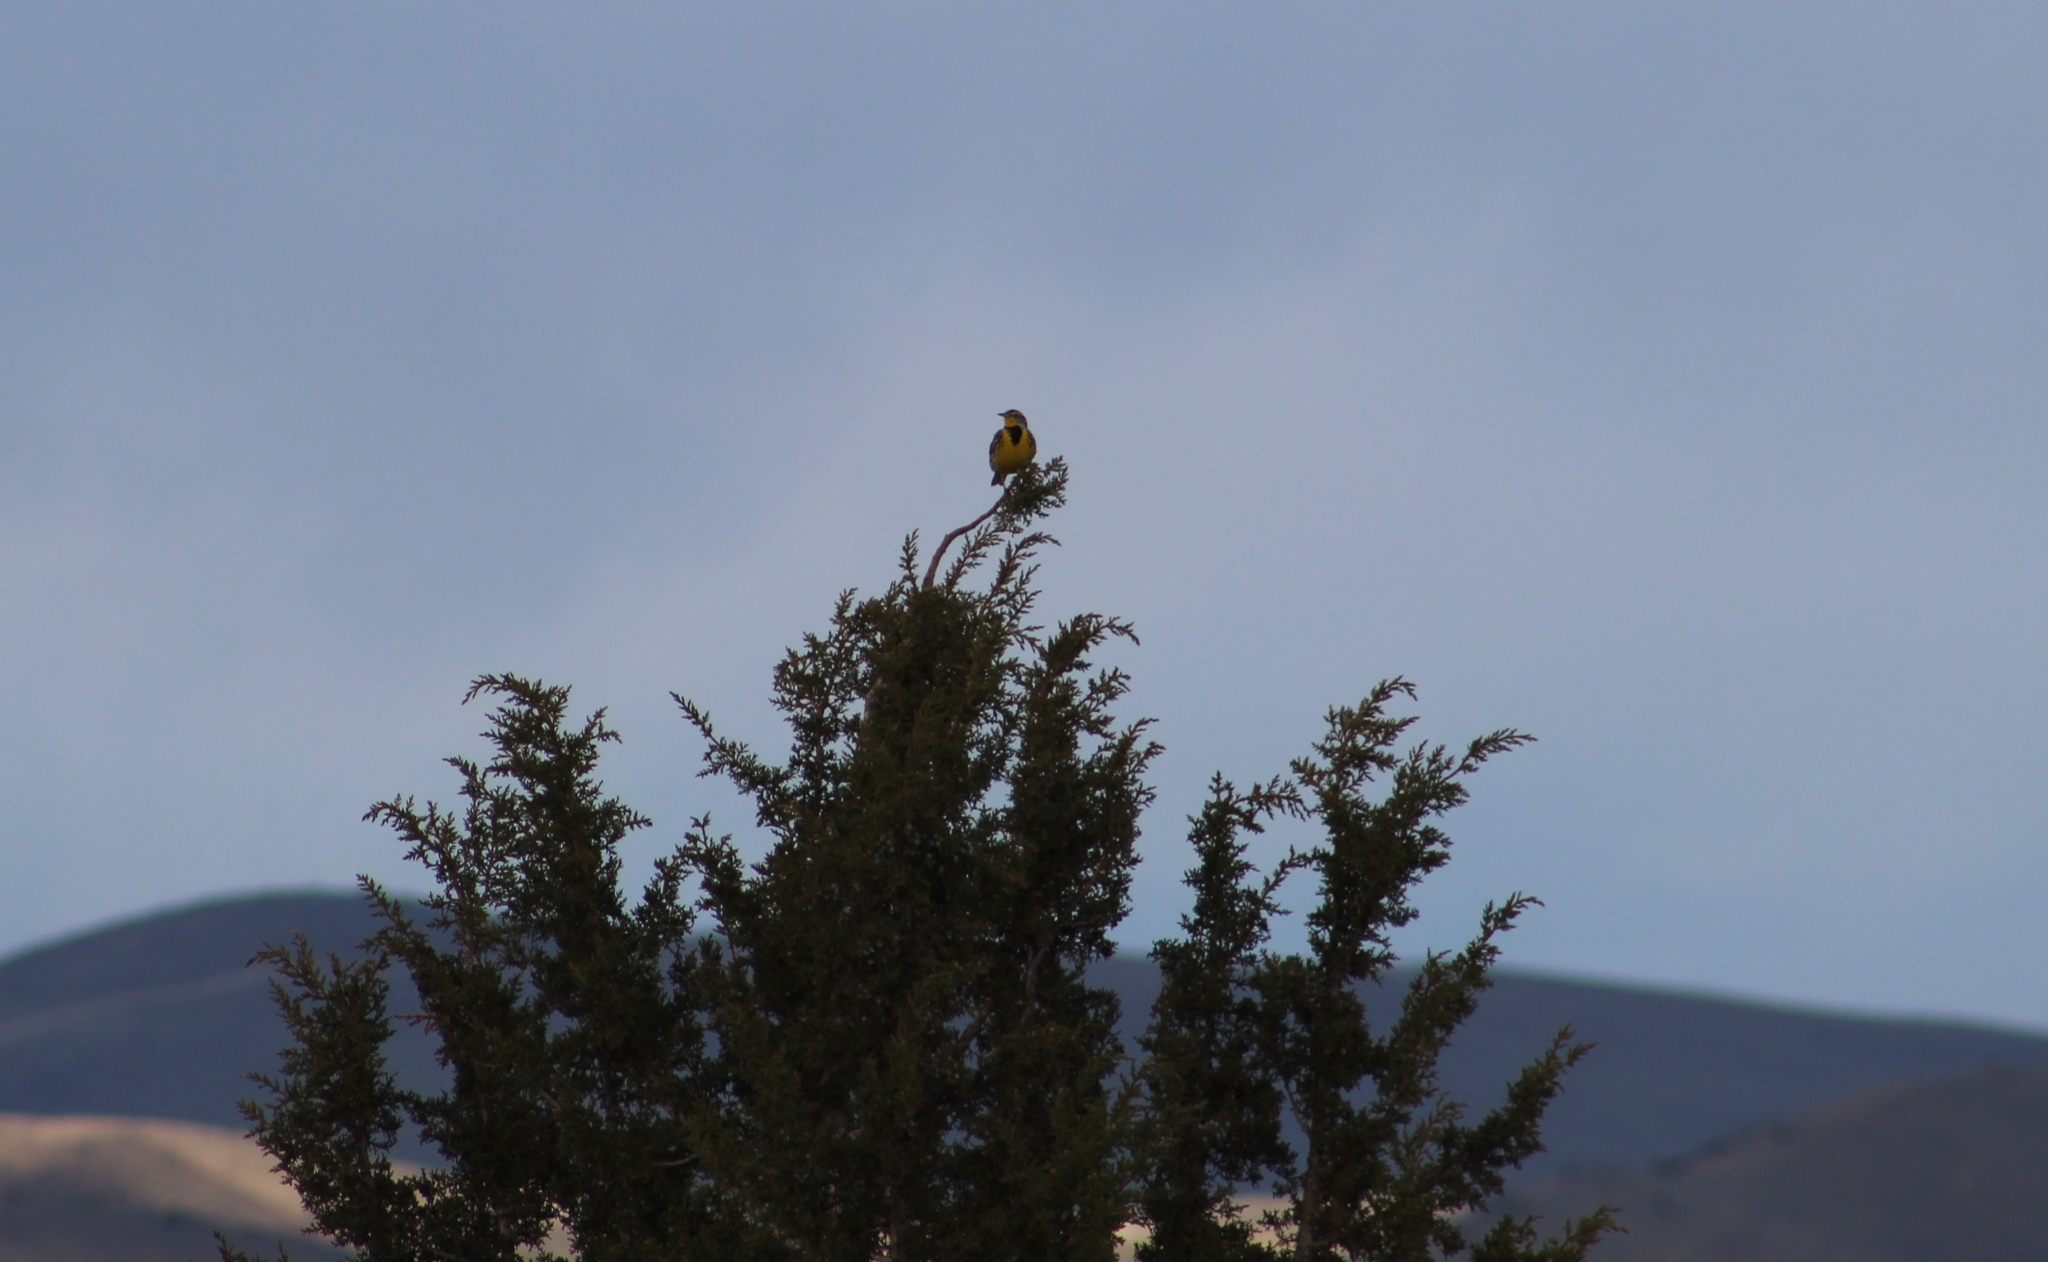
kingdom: Animalia
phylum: Chordata
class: Aves
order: Passeriformes
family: Icteridae
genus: Sturnella
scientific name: Sturnella neglecta
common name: Western meadowlark
